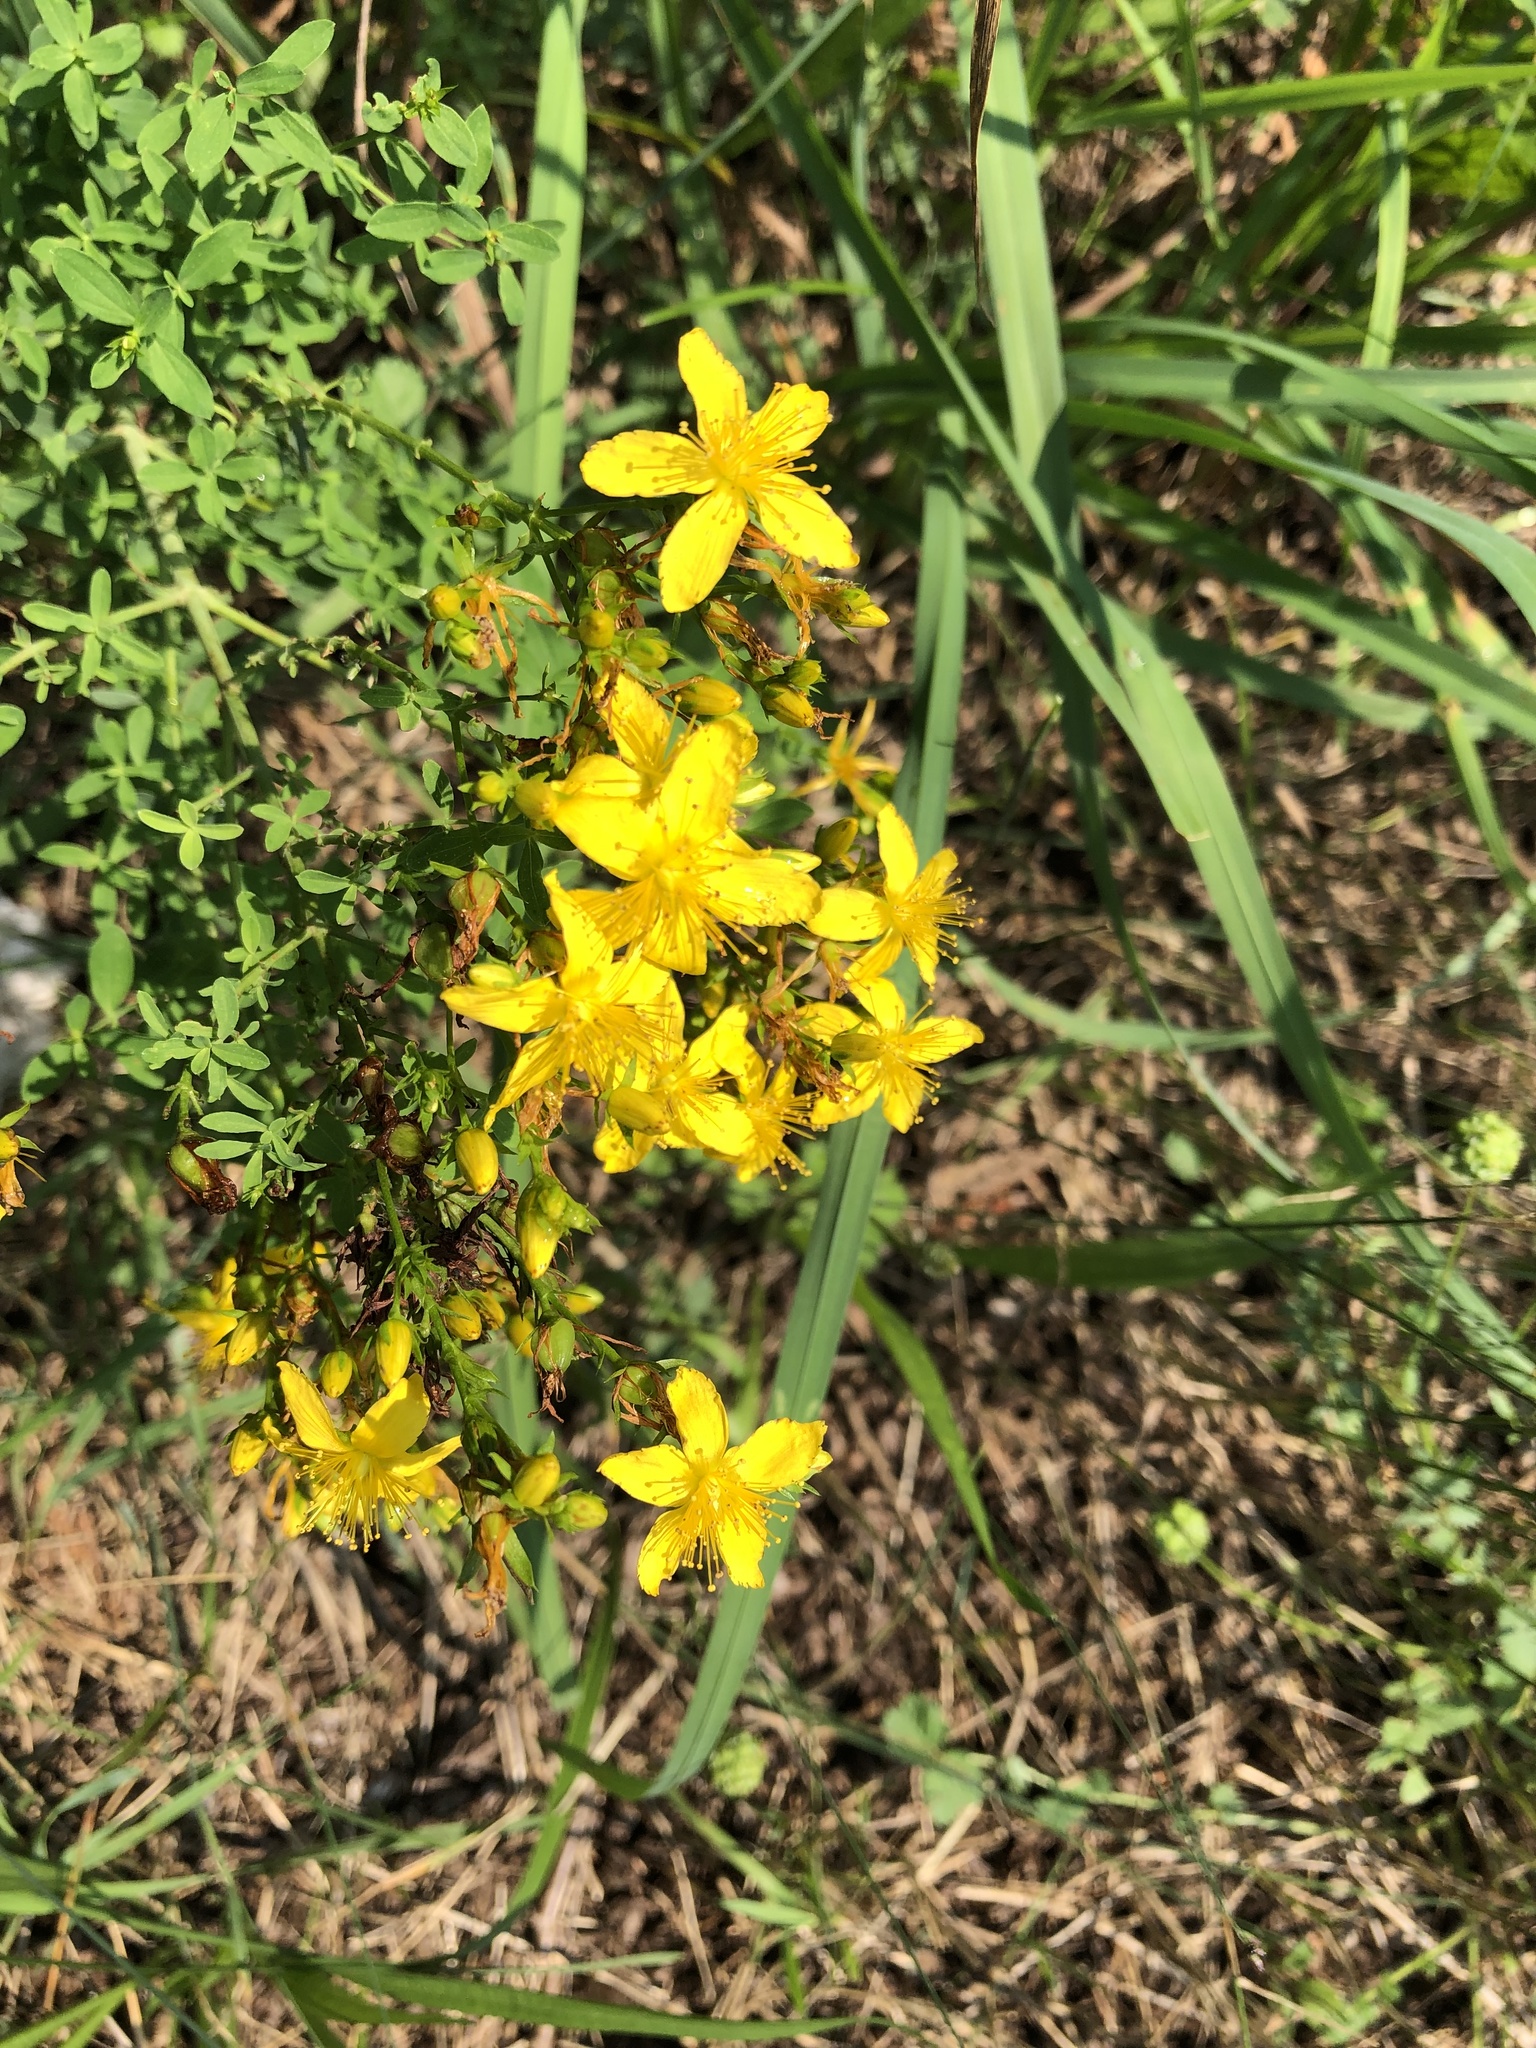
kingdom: Plantae
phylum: Tracheophyta
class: Magnoliopsida
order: Malpighiales
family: Hypericaceae
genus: Hypericum
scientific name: Hypericum perforatum
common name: Common st. johnswort
